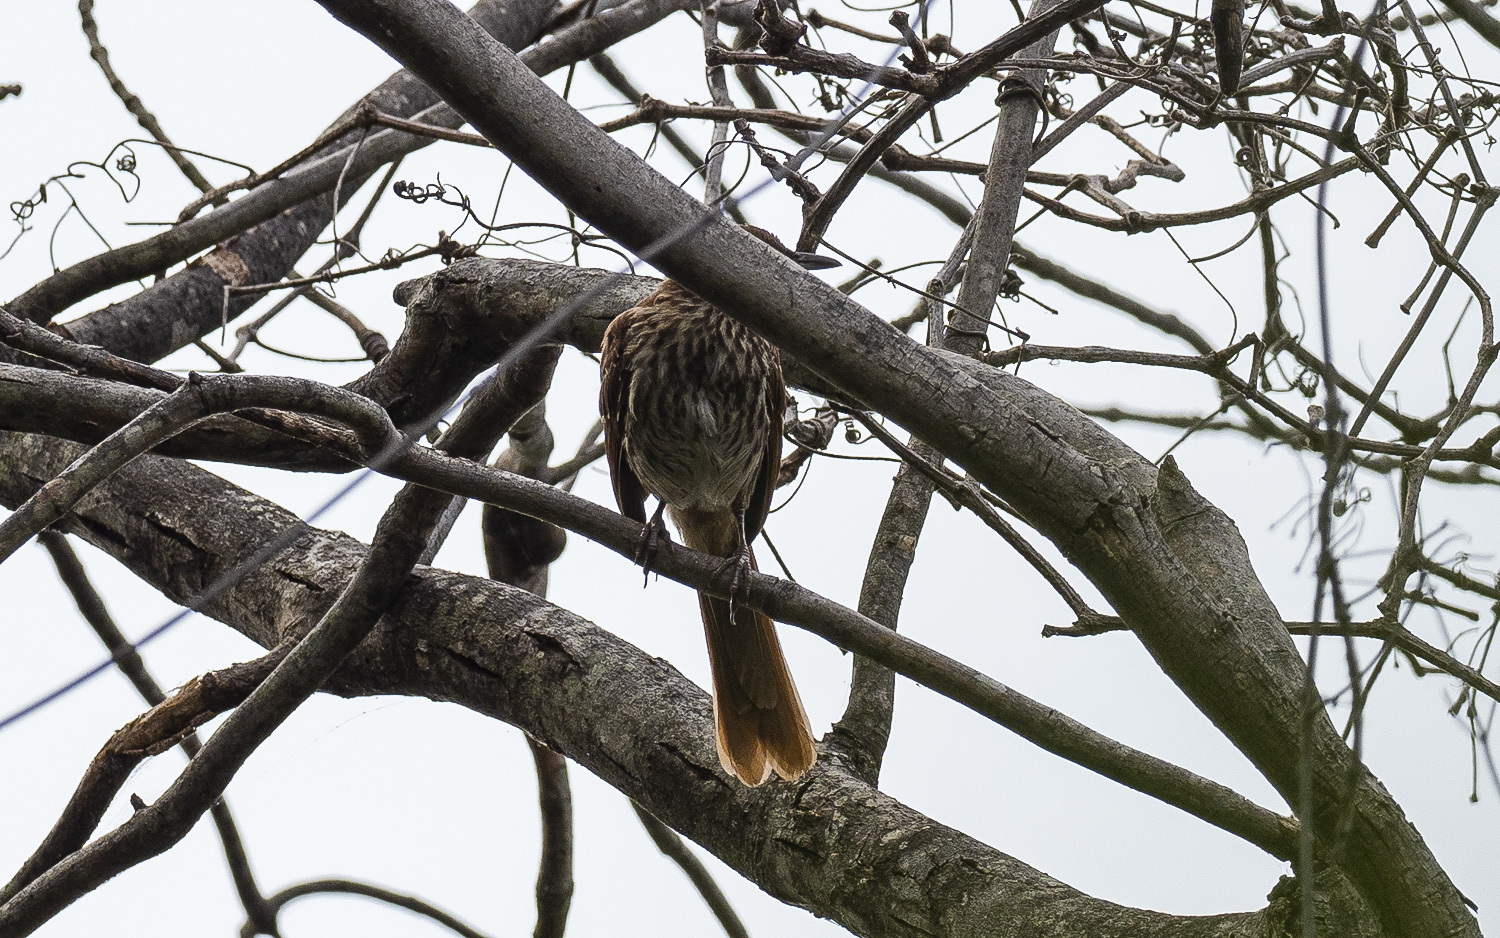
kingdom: Animalia
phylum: Chordata
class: Aves
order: Passeriformes
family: Mimidae
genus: Toxostoma
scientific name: Toxostoma rufum
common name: Brown thrasher
